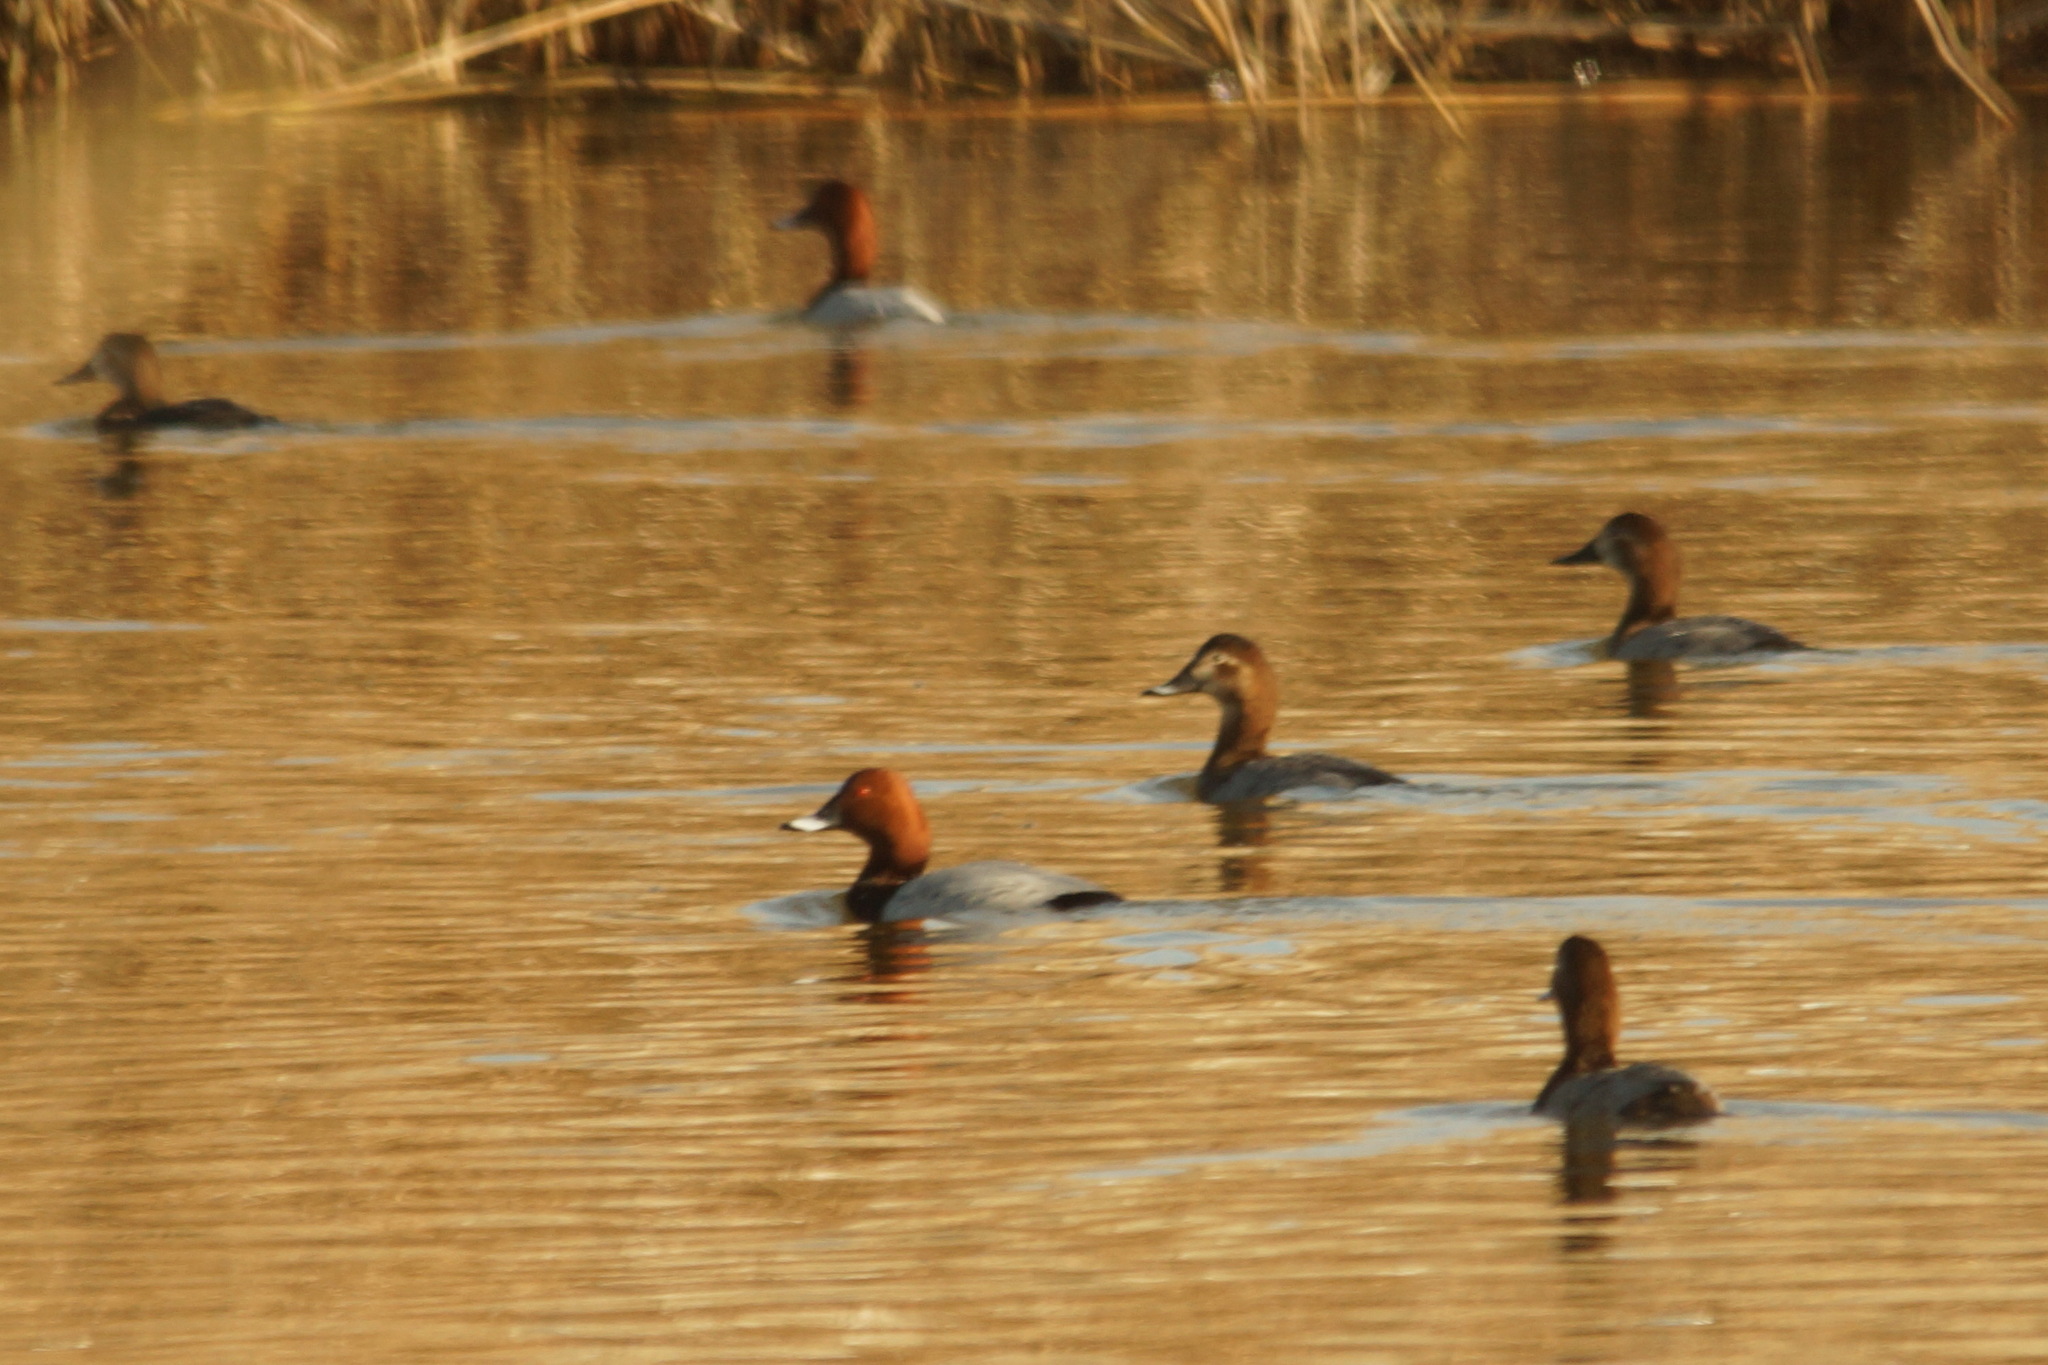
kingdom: Animalia
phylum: Chordata
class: Aves
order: Anseriformes
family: Anatidae
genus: Aythya
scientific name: Aythya ferina
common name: Common pochard
